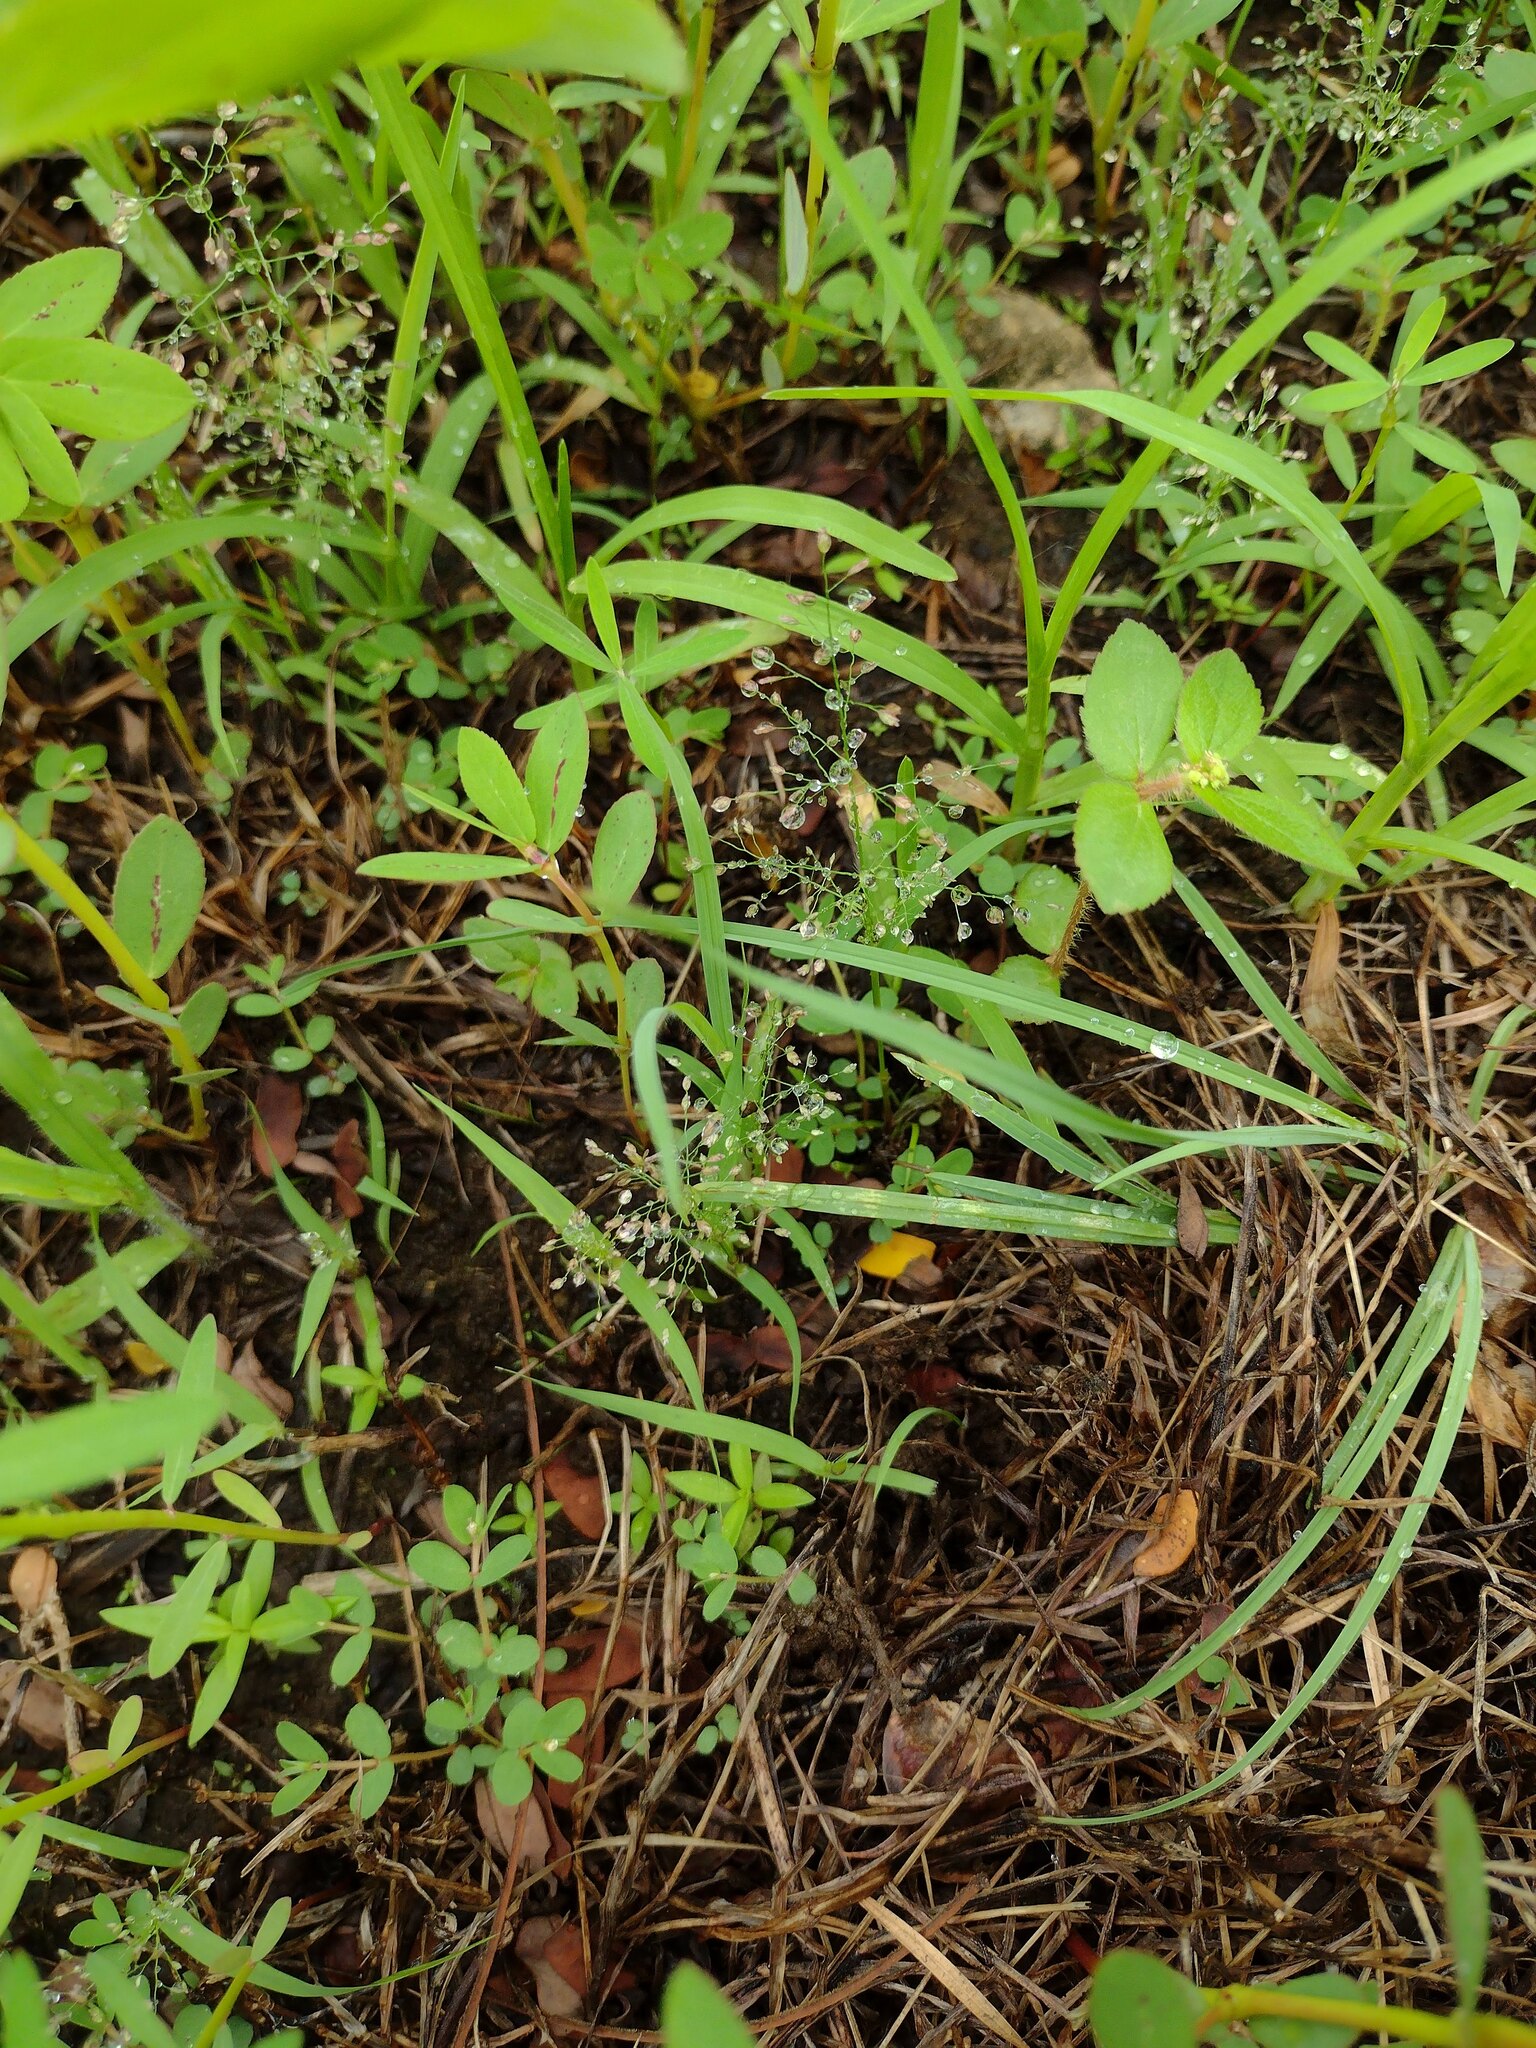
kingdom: Plantae
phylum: Tracheophyta
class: Liliopsida
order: Poales
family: Poaceae
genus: Eragrostis
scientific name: Eragrostis tenella
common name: Japanese lovegrass
